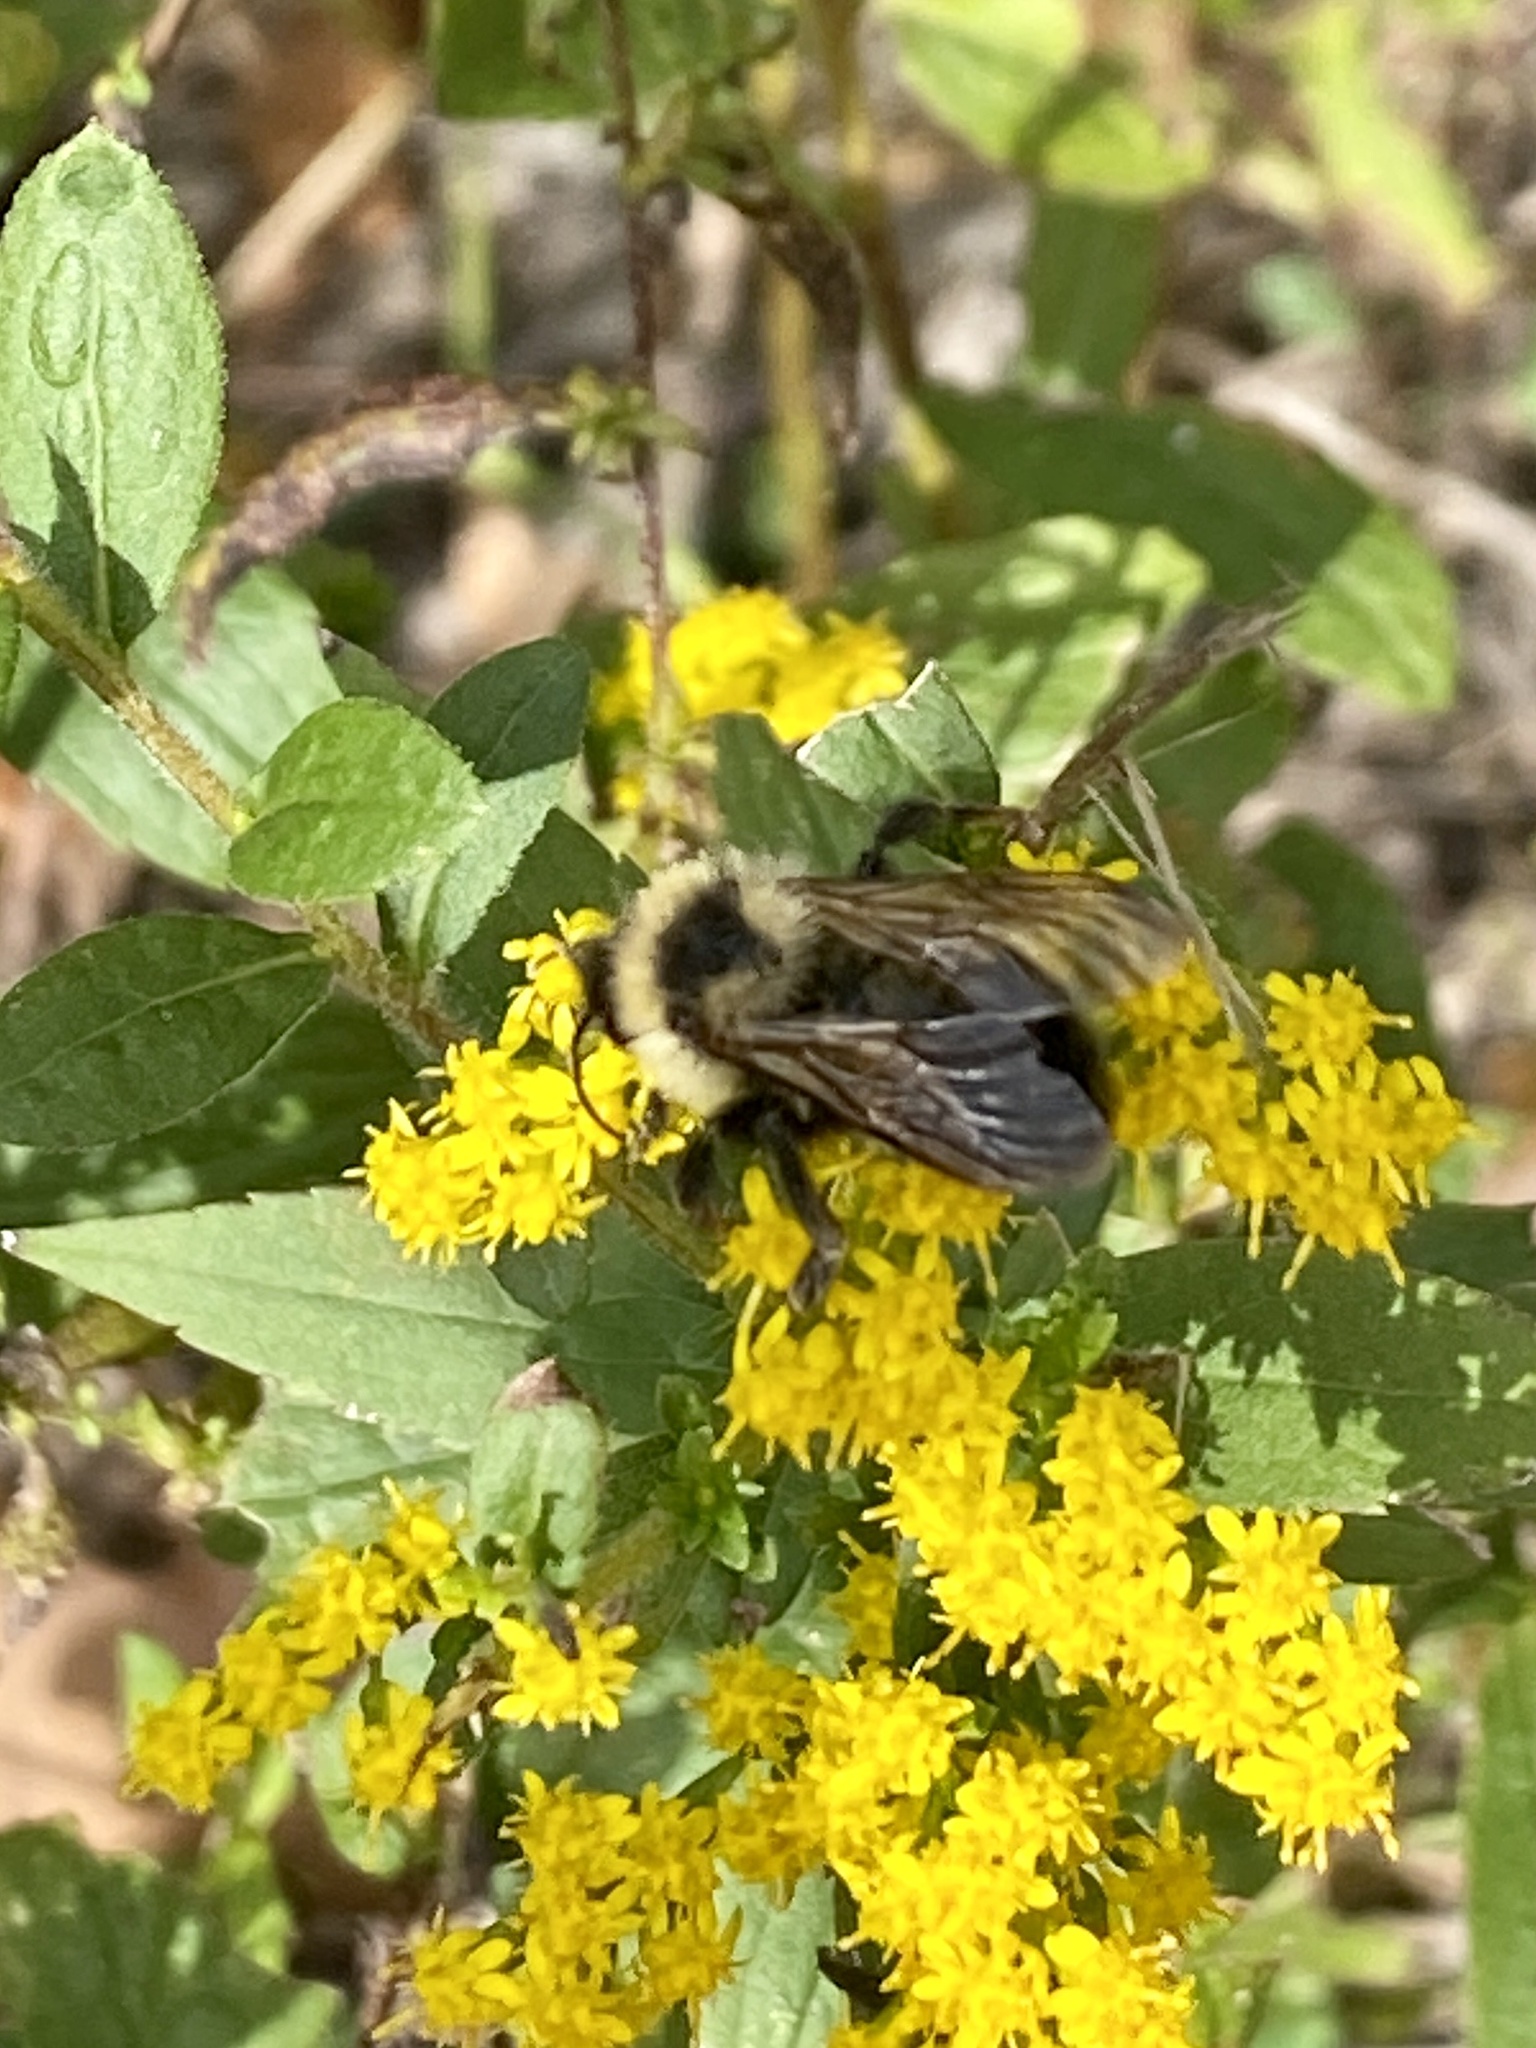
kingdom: Animalia
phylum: Arthropoda
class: Insecta
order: Hymenoptera
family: Apidae
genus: Bombus
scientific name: Bombus citrinus
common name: Lemon cuckoo bumble bee
